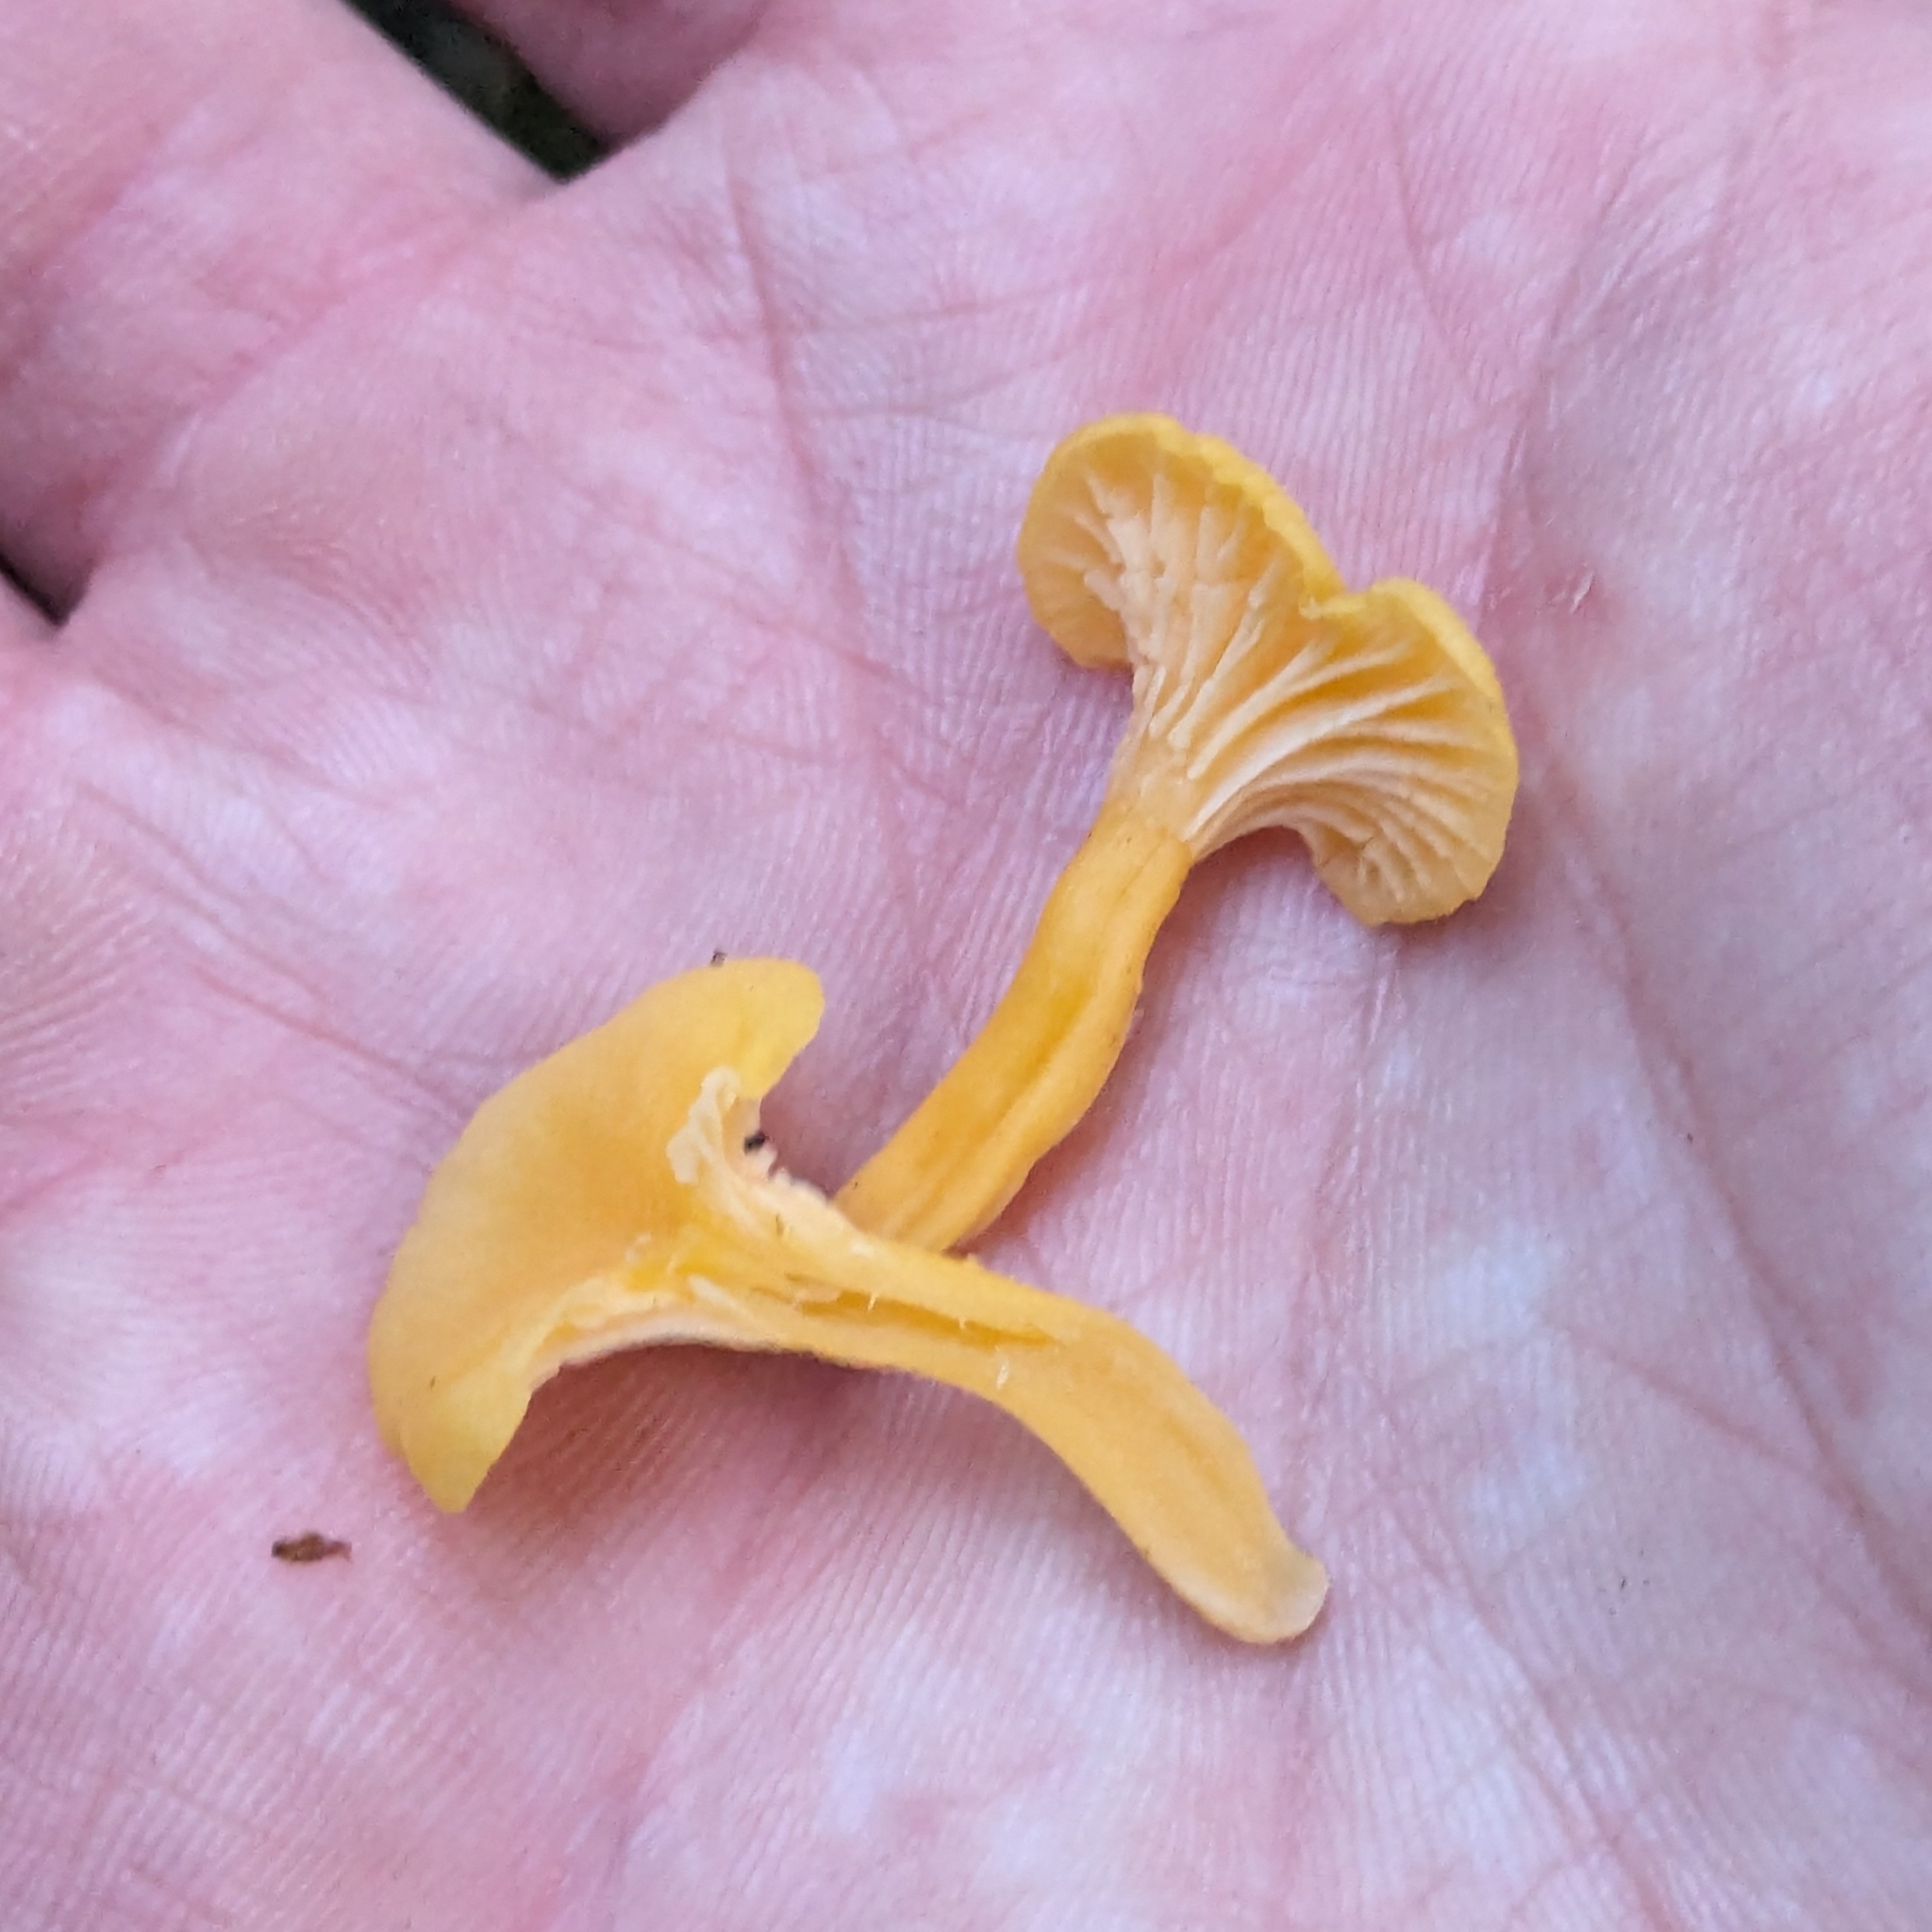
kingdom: Fungi
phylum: Basidiomycota
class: Agaricomycetes
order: Cantharellales
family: Hydnaceae
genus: Cantharellus
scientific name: Cantharellus wellingtonensis
